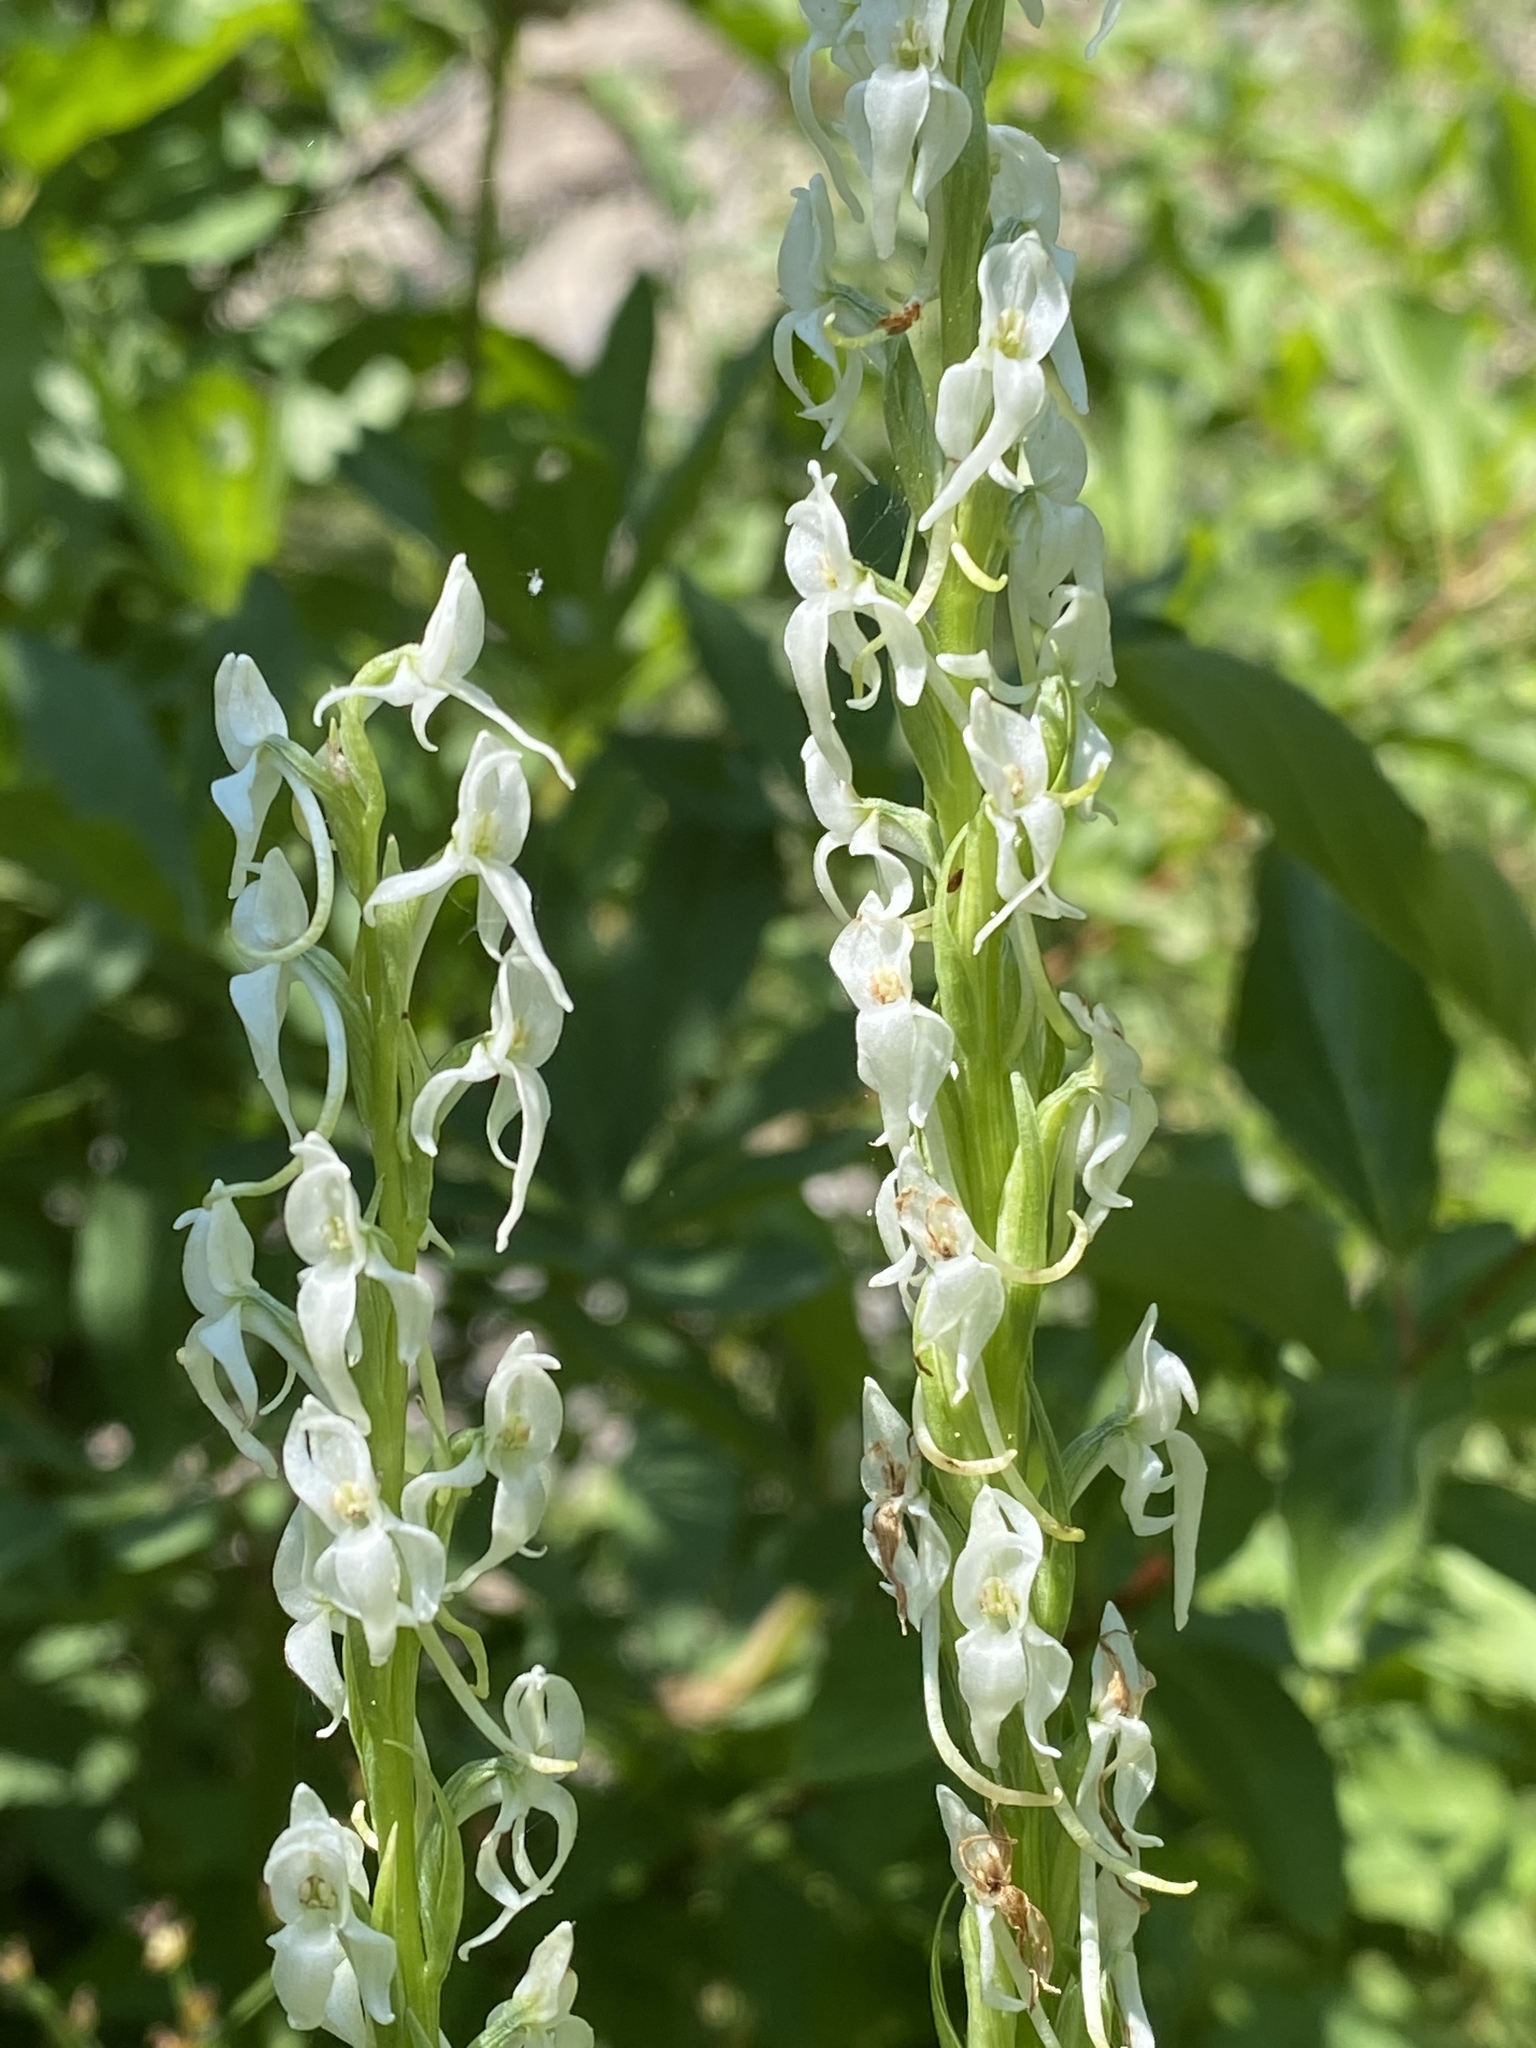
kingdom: Plantae
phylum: Tracheophyta
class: Liliopsida
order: Asparagales
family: Orchidaceae
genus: Platanthera
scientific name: Platanthera dilatata
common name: Bog candles
